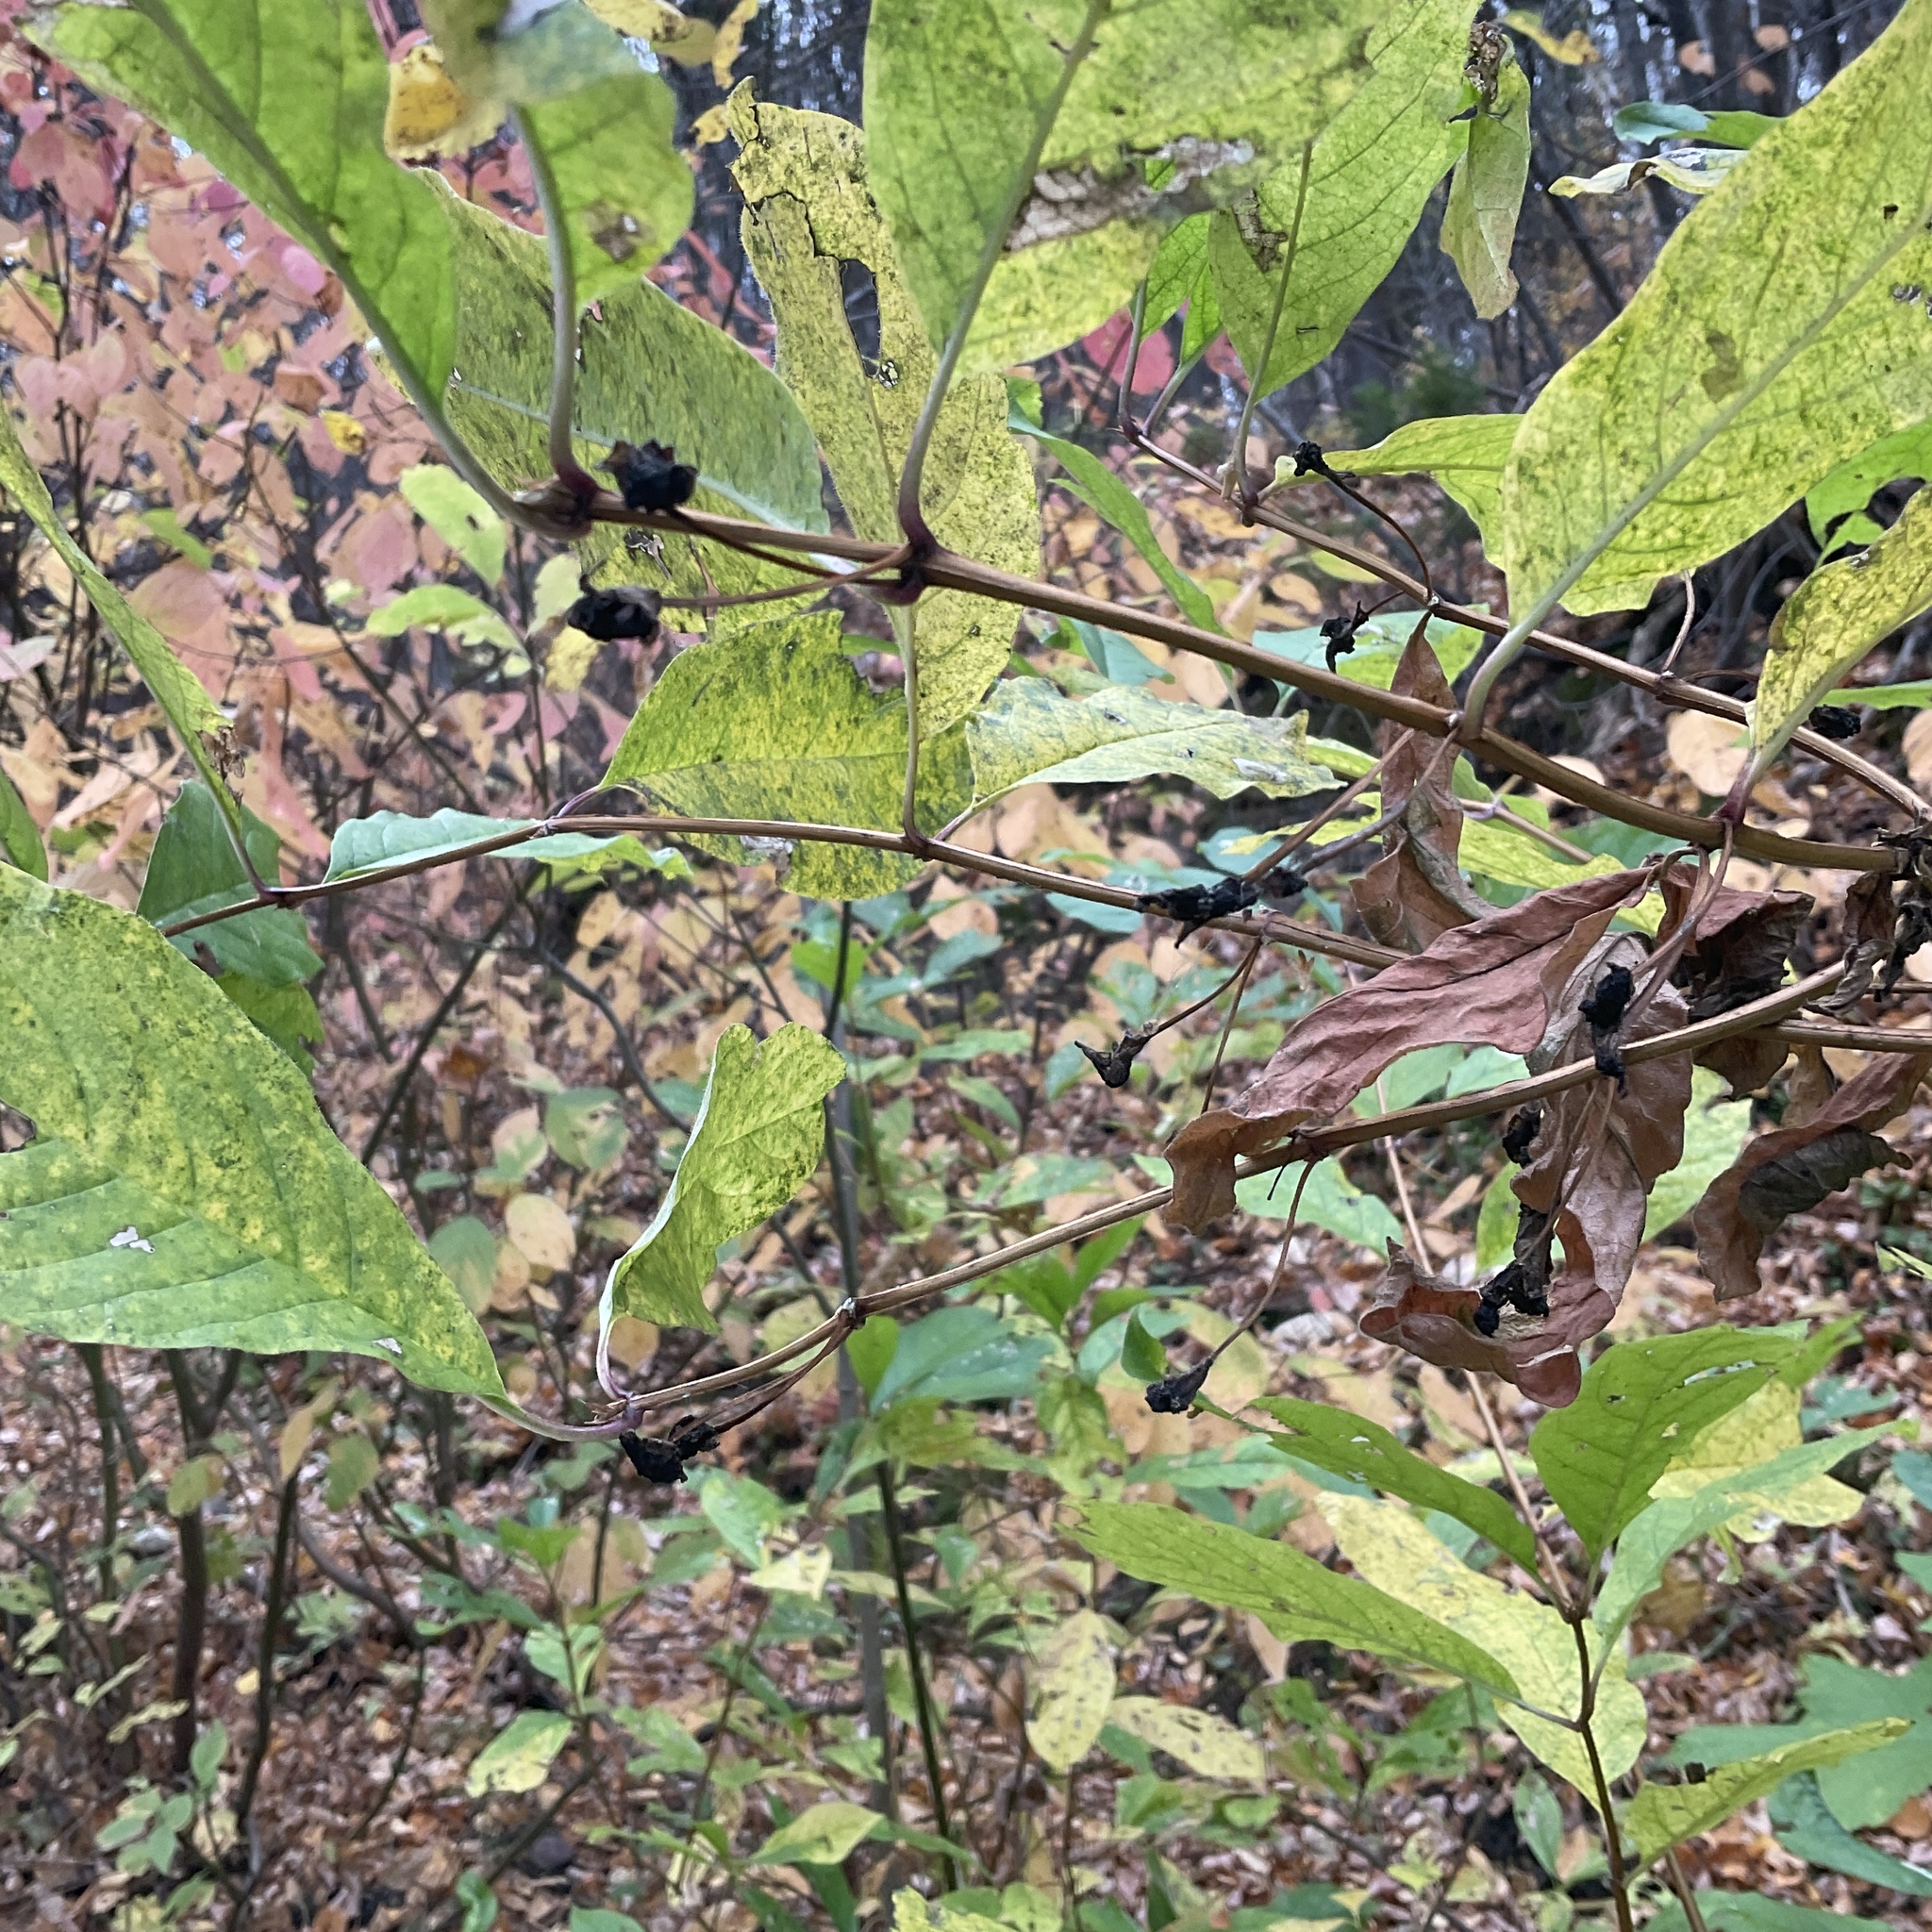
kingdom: Plantae
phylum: Tracheophyta
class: Magnoliopsida
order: Dipsacales
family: Caprifoliaceae
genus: Lonicera
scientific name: Lonicera involucrata
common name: Californian honeysuckle
